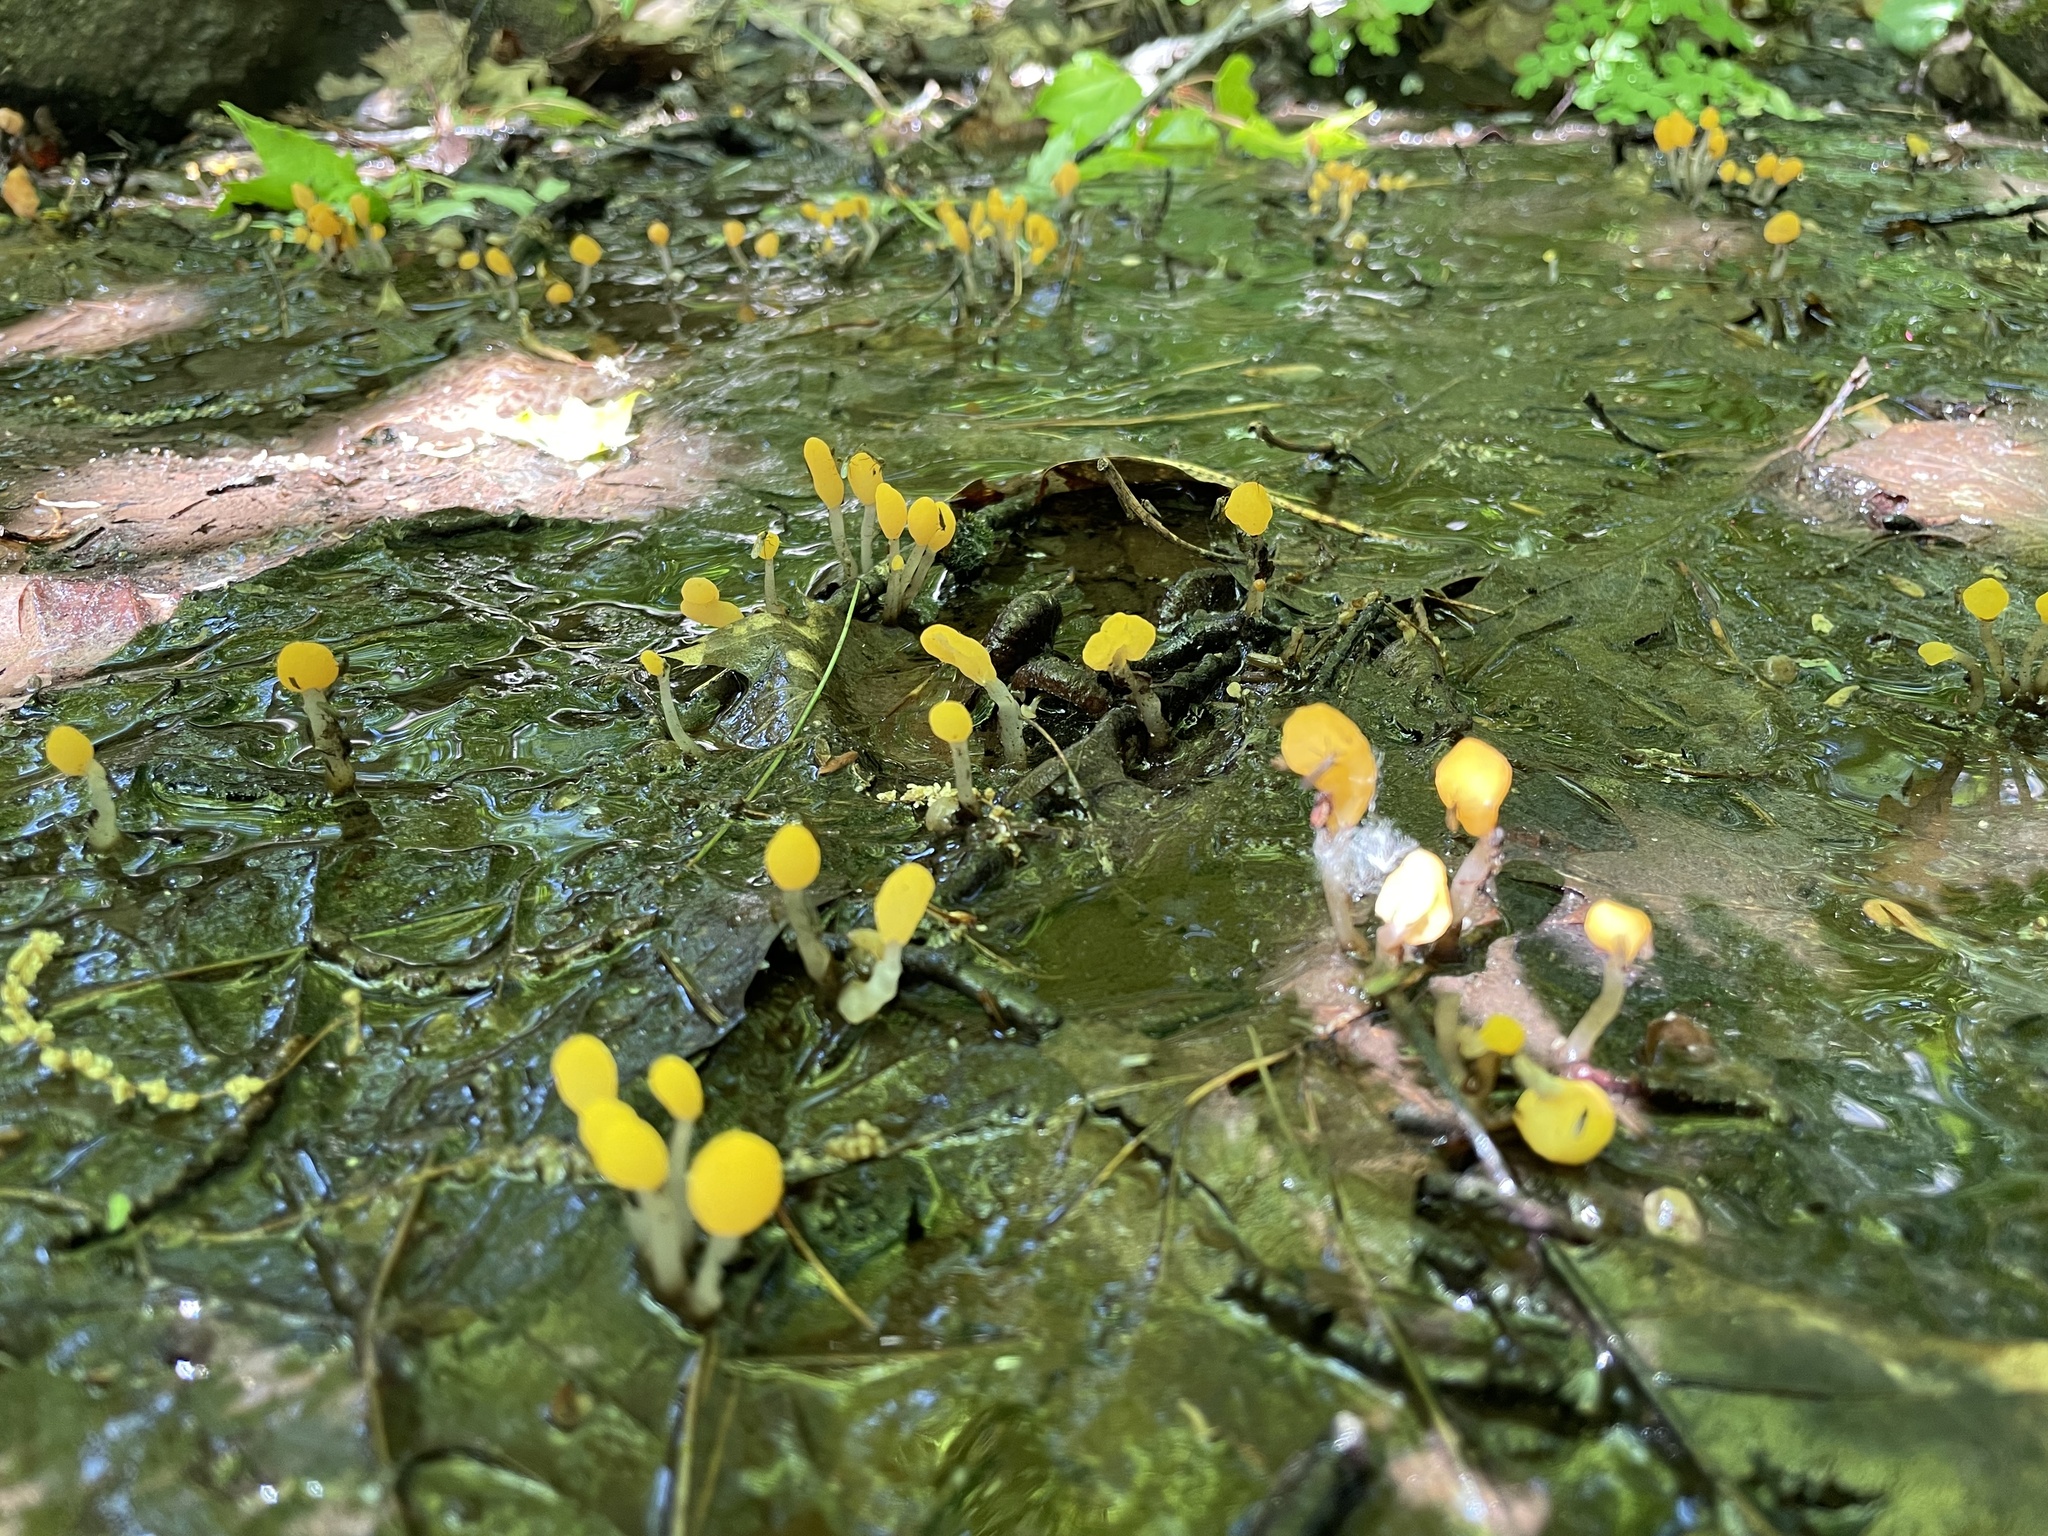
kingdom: Fungi
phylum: Ascomycota
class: Leotiomycetes
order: Helotiales
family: Sclerotiniaceae
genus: Mitrula
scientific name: Mitrula elegans
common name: Swamp beacon
